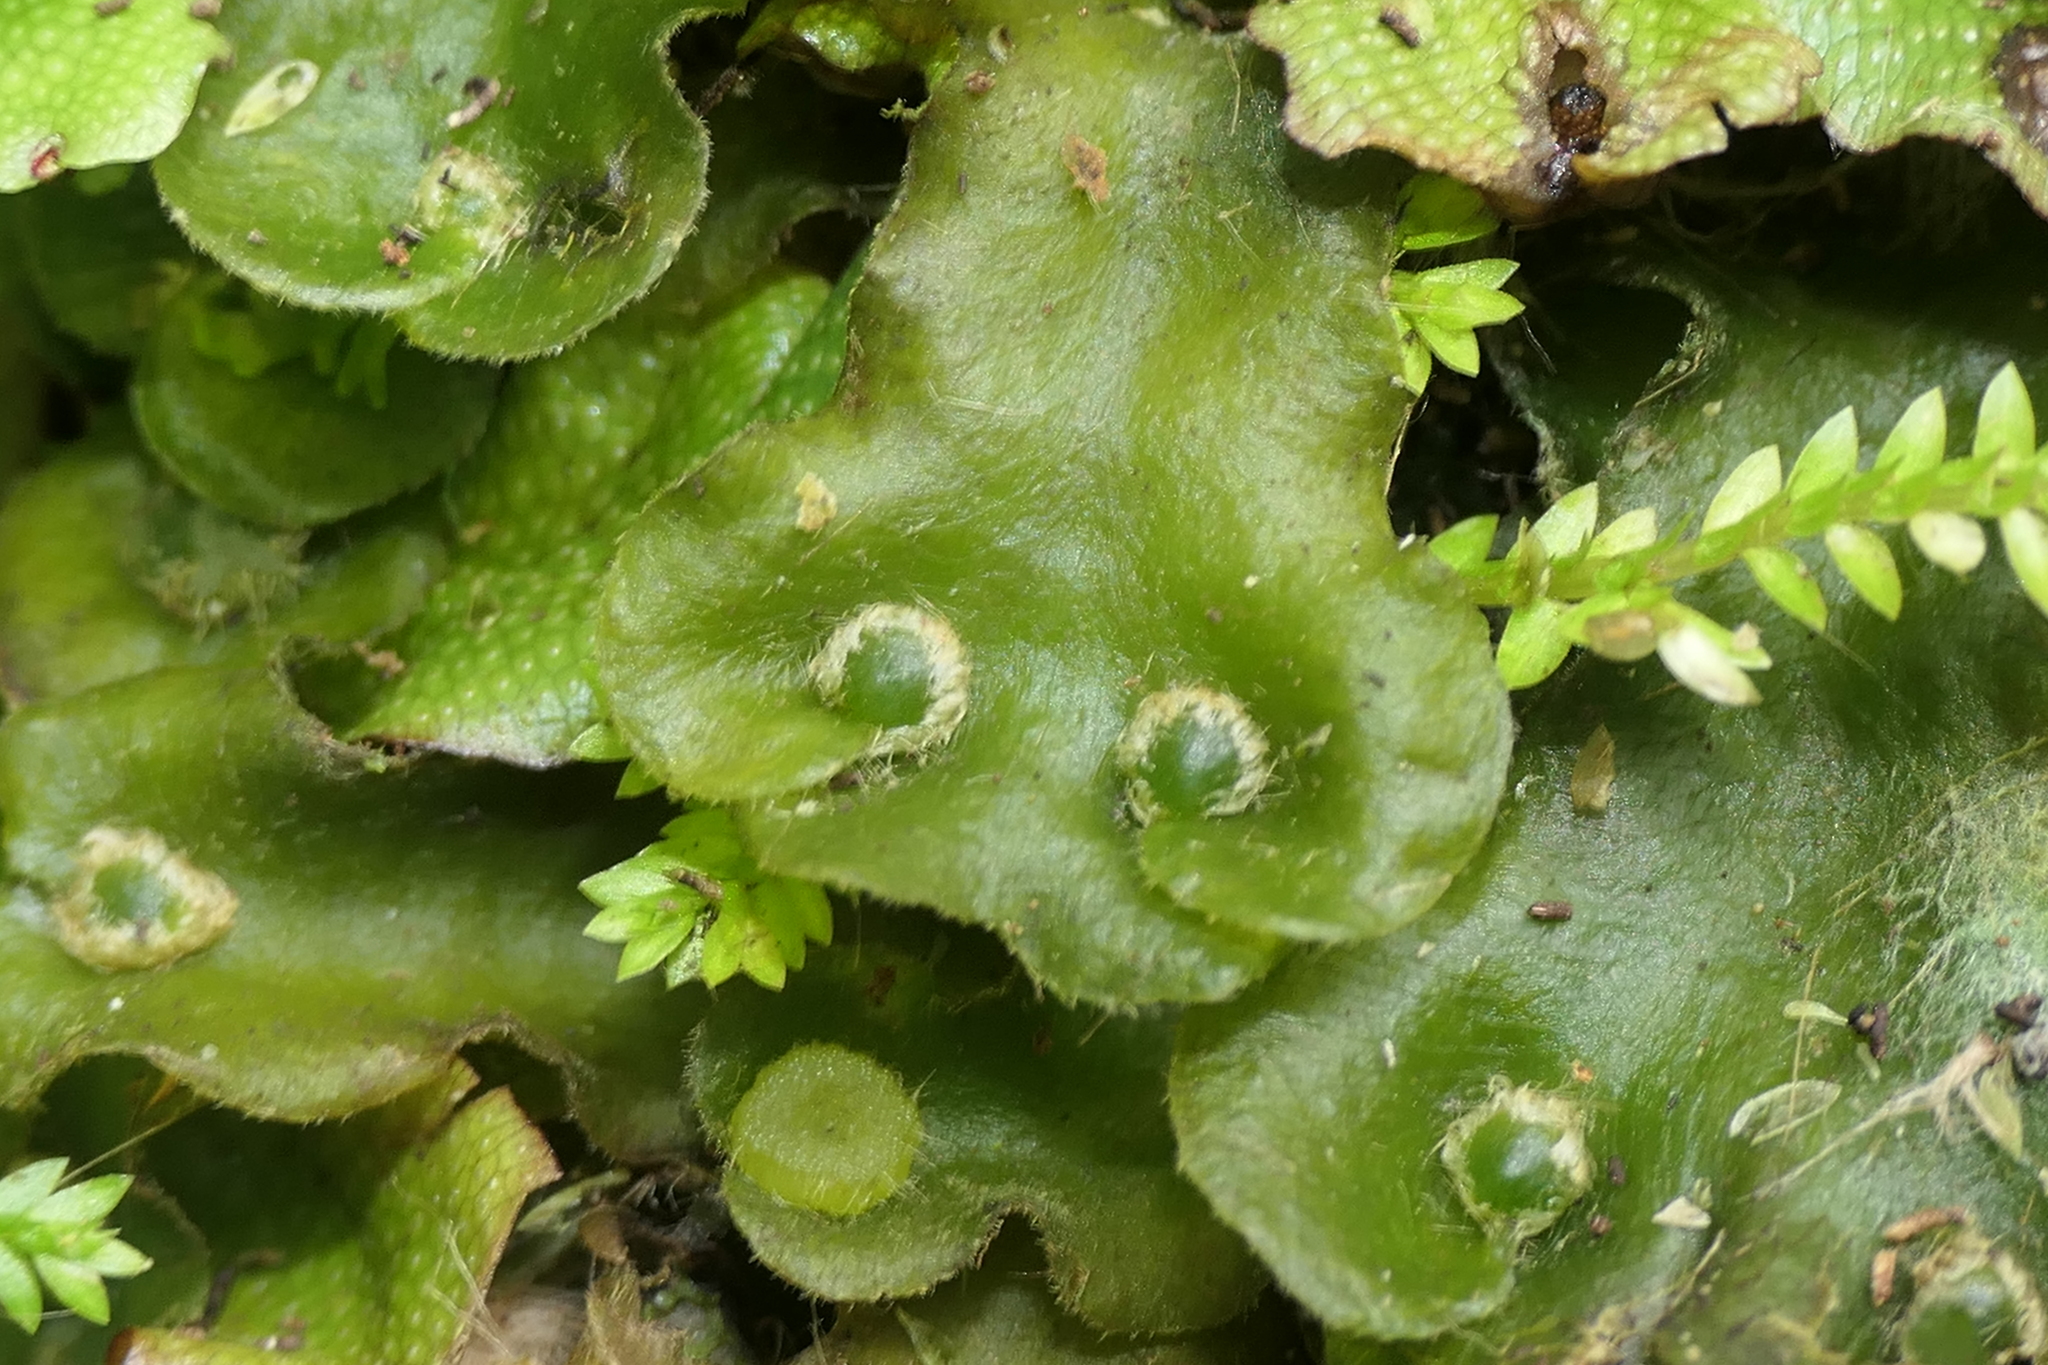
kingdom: Plantae
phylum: Marchantiophyta
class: Marchantiopsida
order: Marchantiales
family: Dumortieraceae
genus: Dumortiera
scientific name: Dumortiera hirsuta
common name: Dumortier's liverwort
